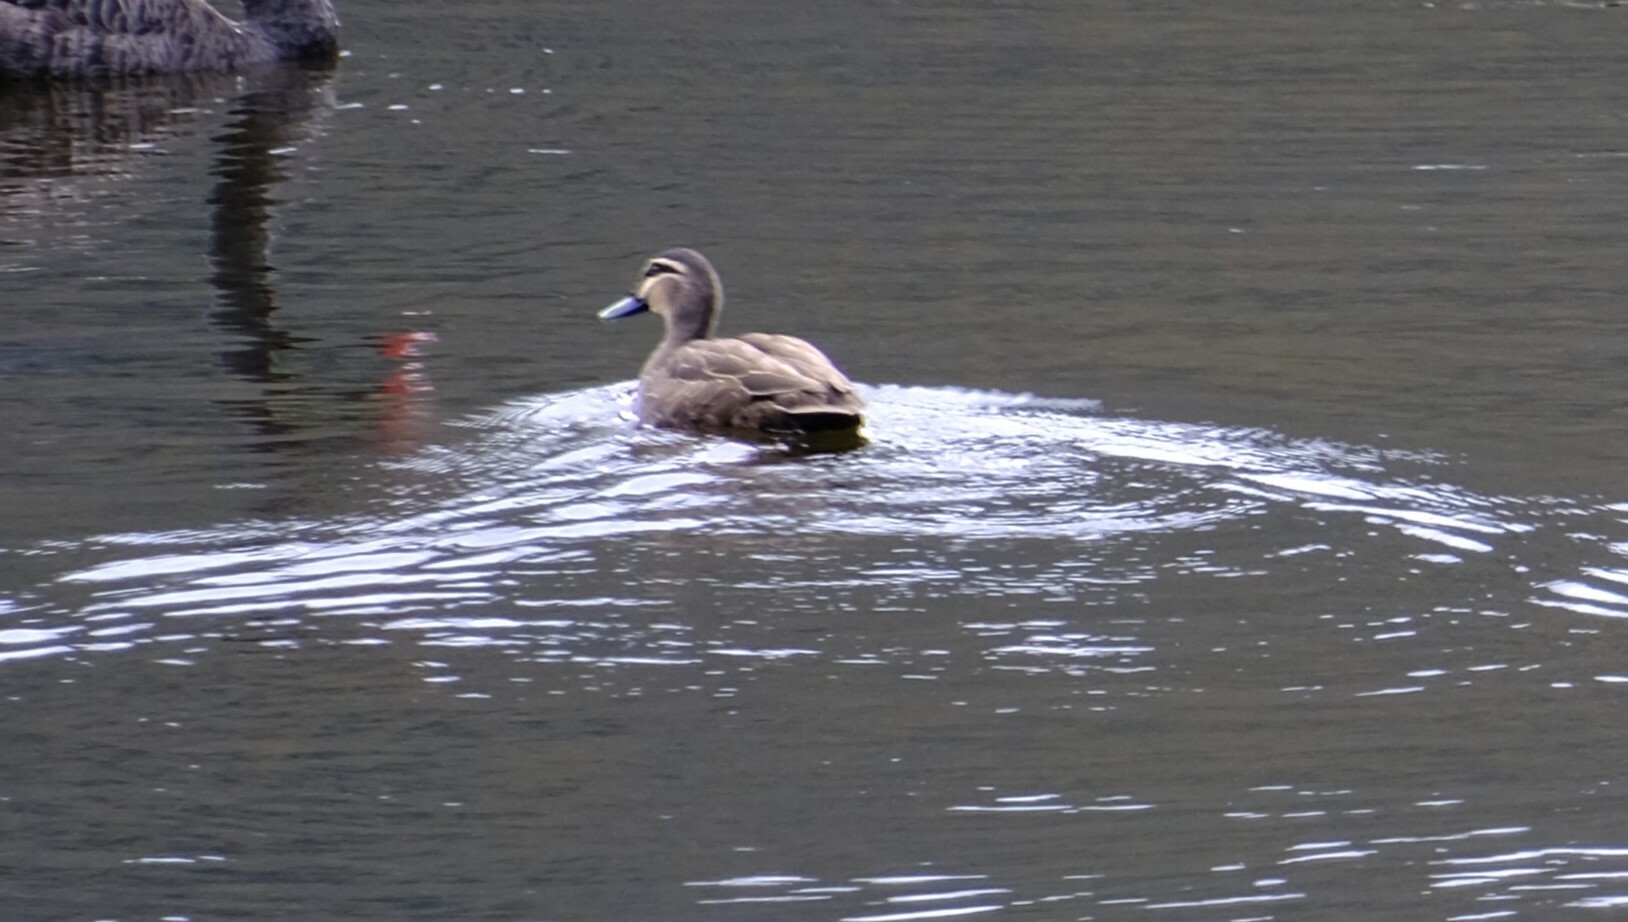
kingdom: Animalia
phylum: Chordata
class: Aves
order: Anseriformes
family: Anatidae
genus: Anas
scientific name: Anas superciliosa
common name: Pacific black duck
